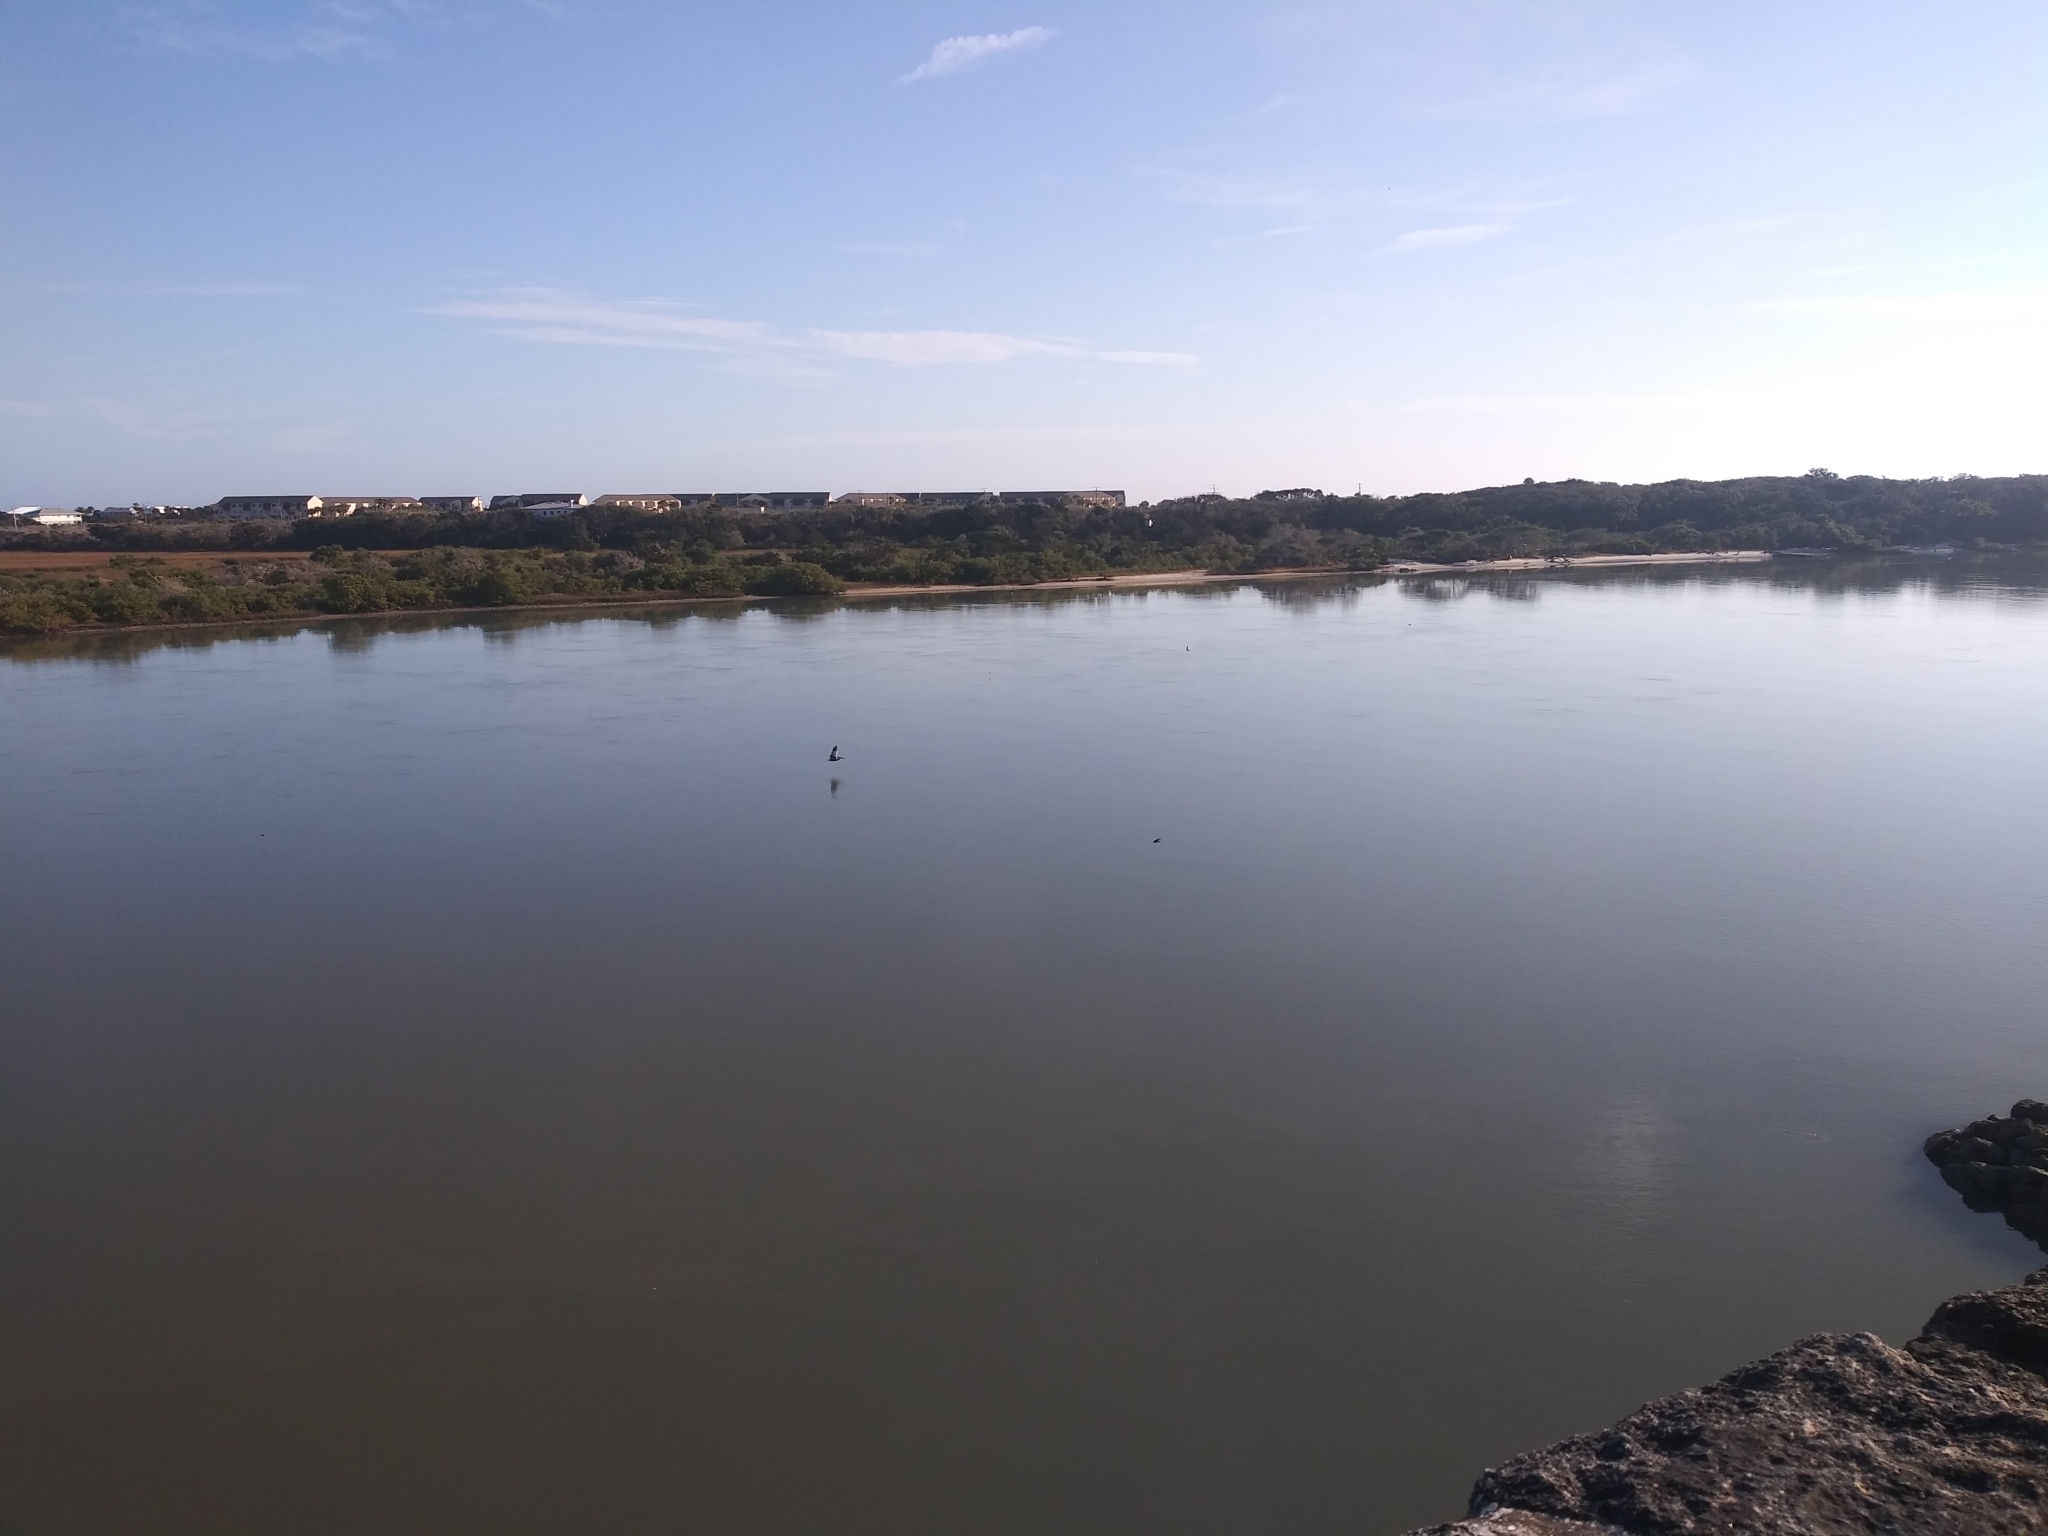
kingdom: Animalia
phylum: Chordata
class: Aves
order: Pelecaniformes
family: Pelecanidae
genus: Pelecanus
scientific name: Pelecanus occidentalis
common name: Brown pelican
